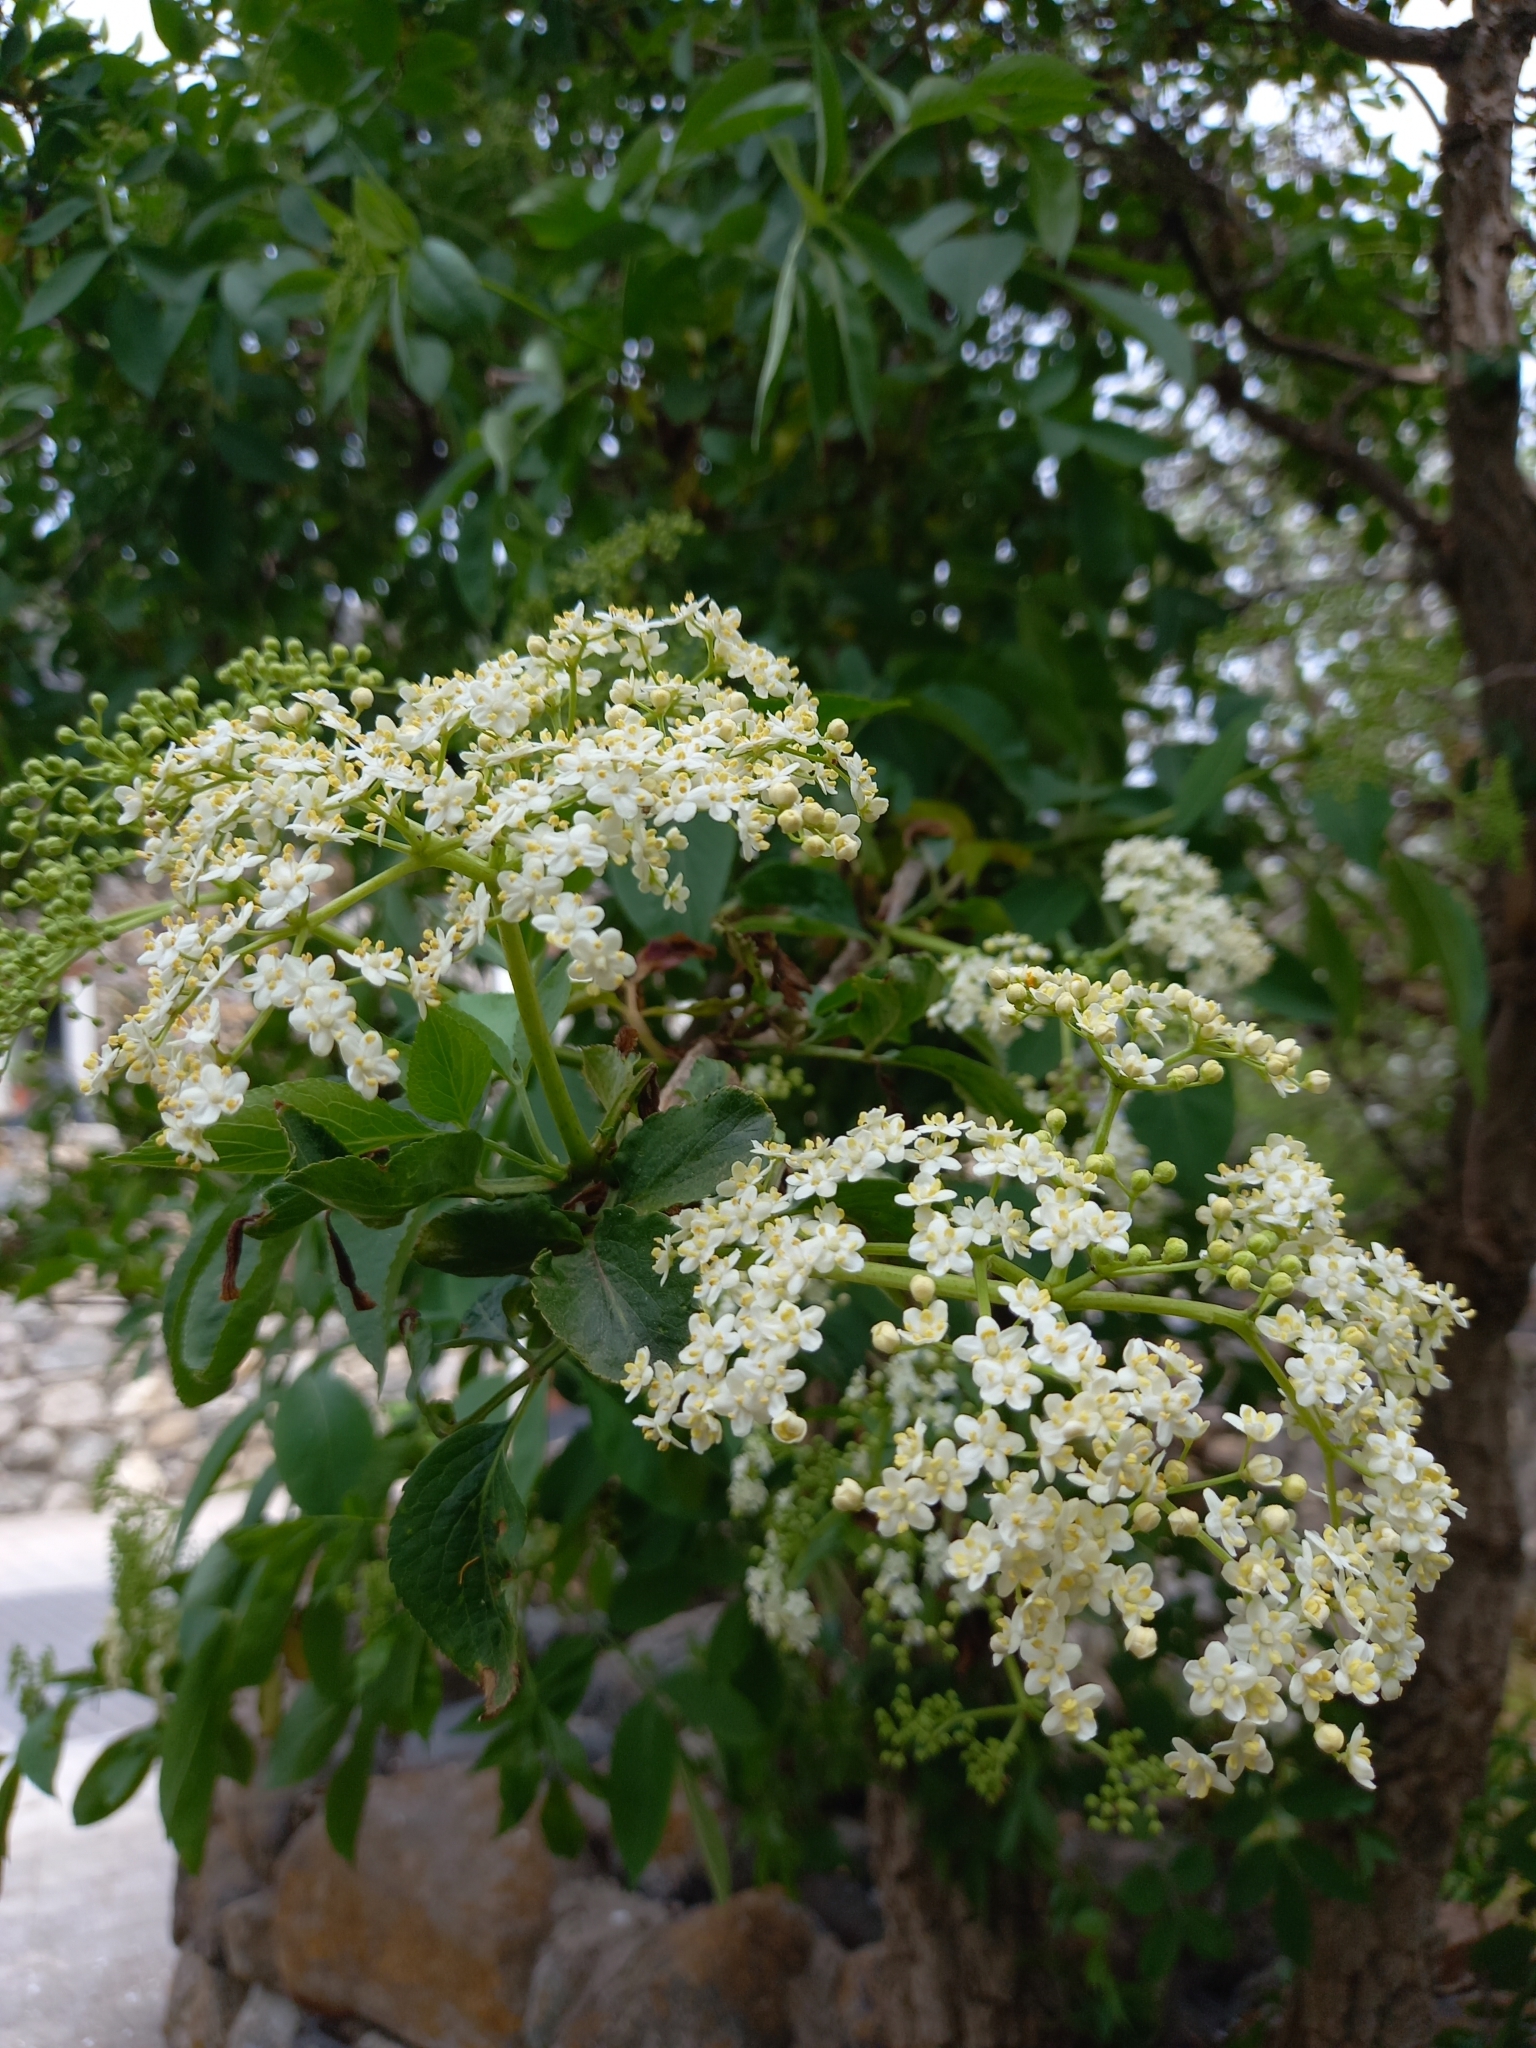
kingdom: Plantae
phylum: Tracheophyta
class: Magnoliopsida
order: Dipsacales
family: Viburnaceae
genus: Sambucus
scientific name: Sambucus nigra
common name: Elder
